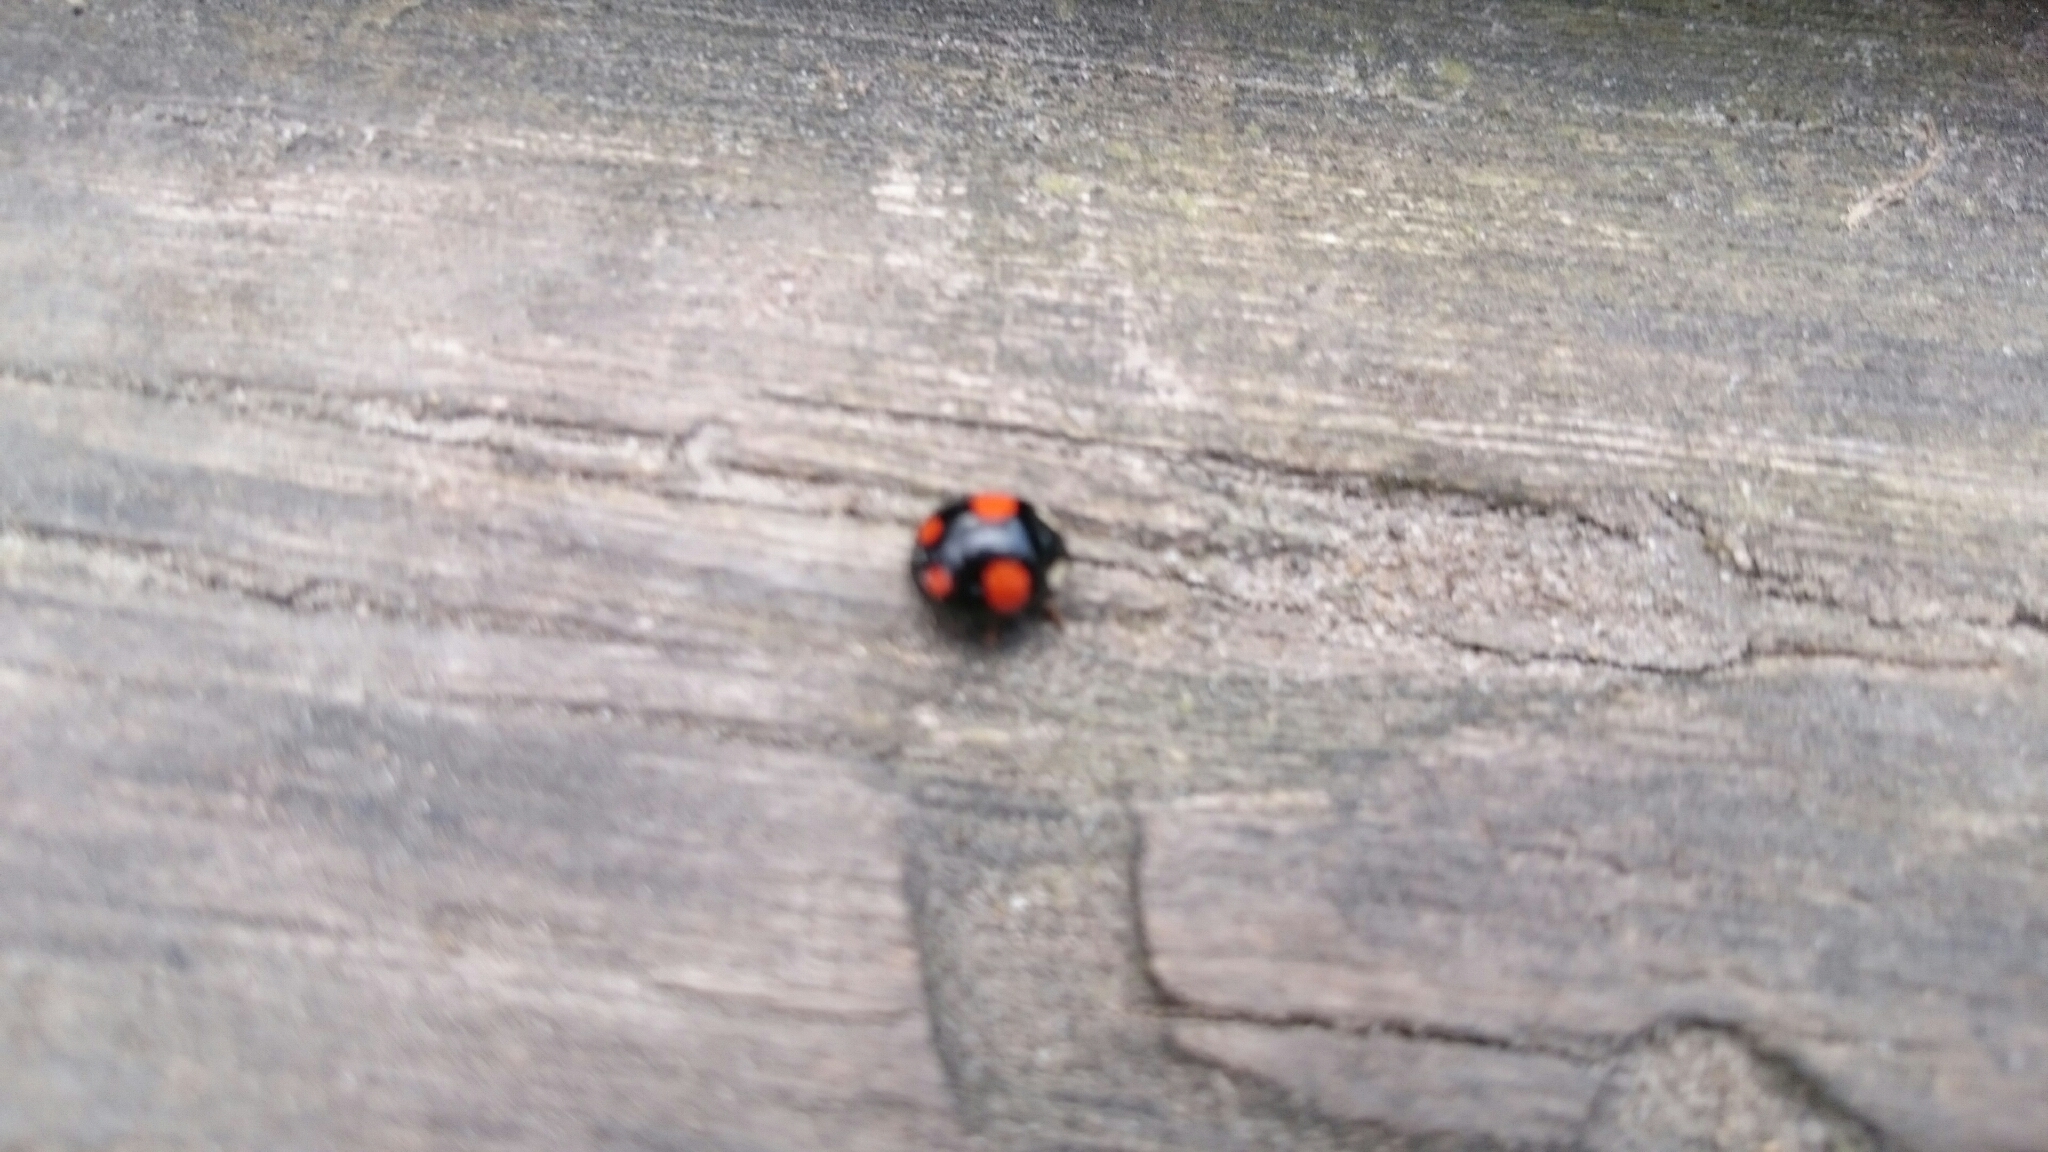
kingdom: Animalia
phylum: Arthropoda
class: Insecta
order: Coleoptera
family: Coccinellidae
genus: Harmonia
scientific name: Harmonia axyridis
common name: Harlequin ladybird
